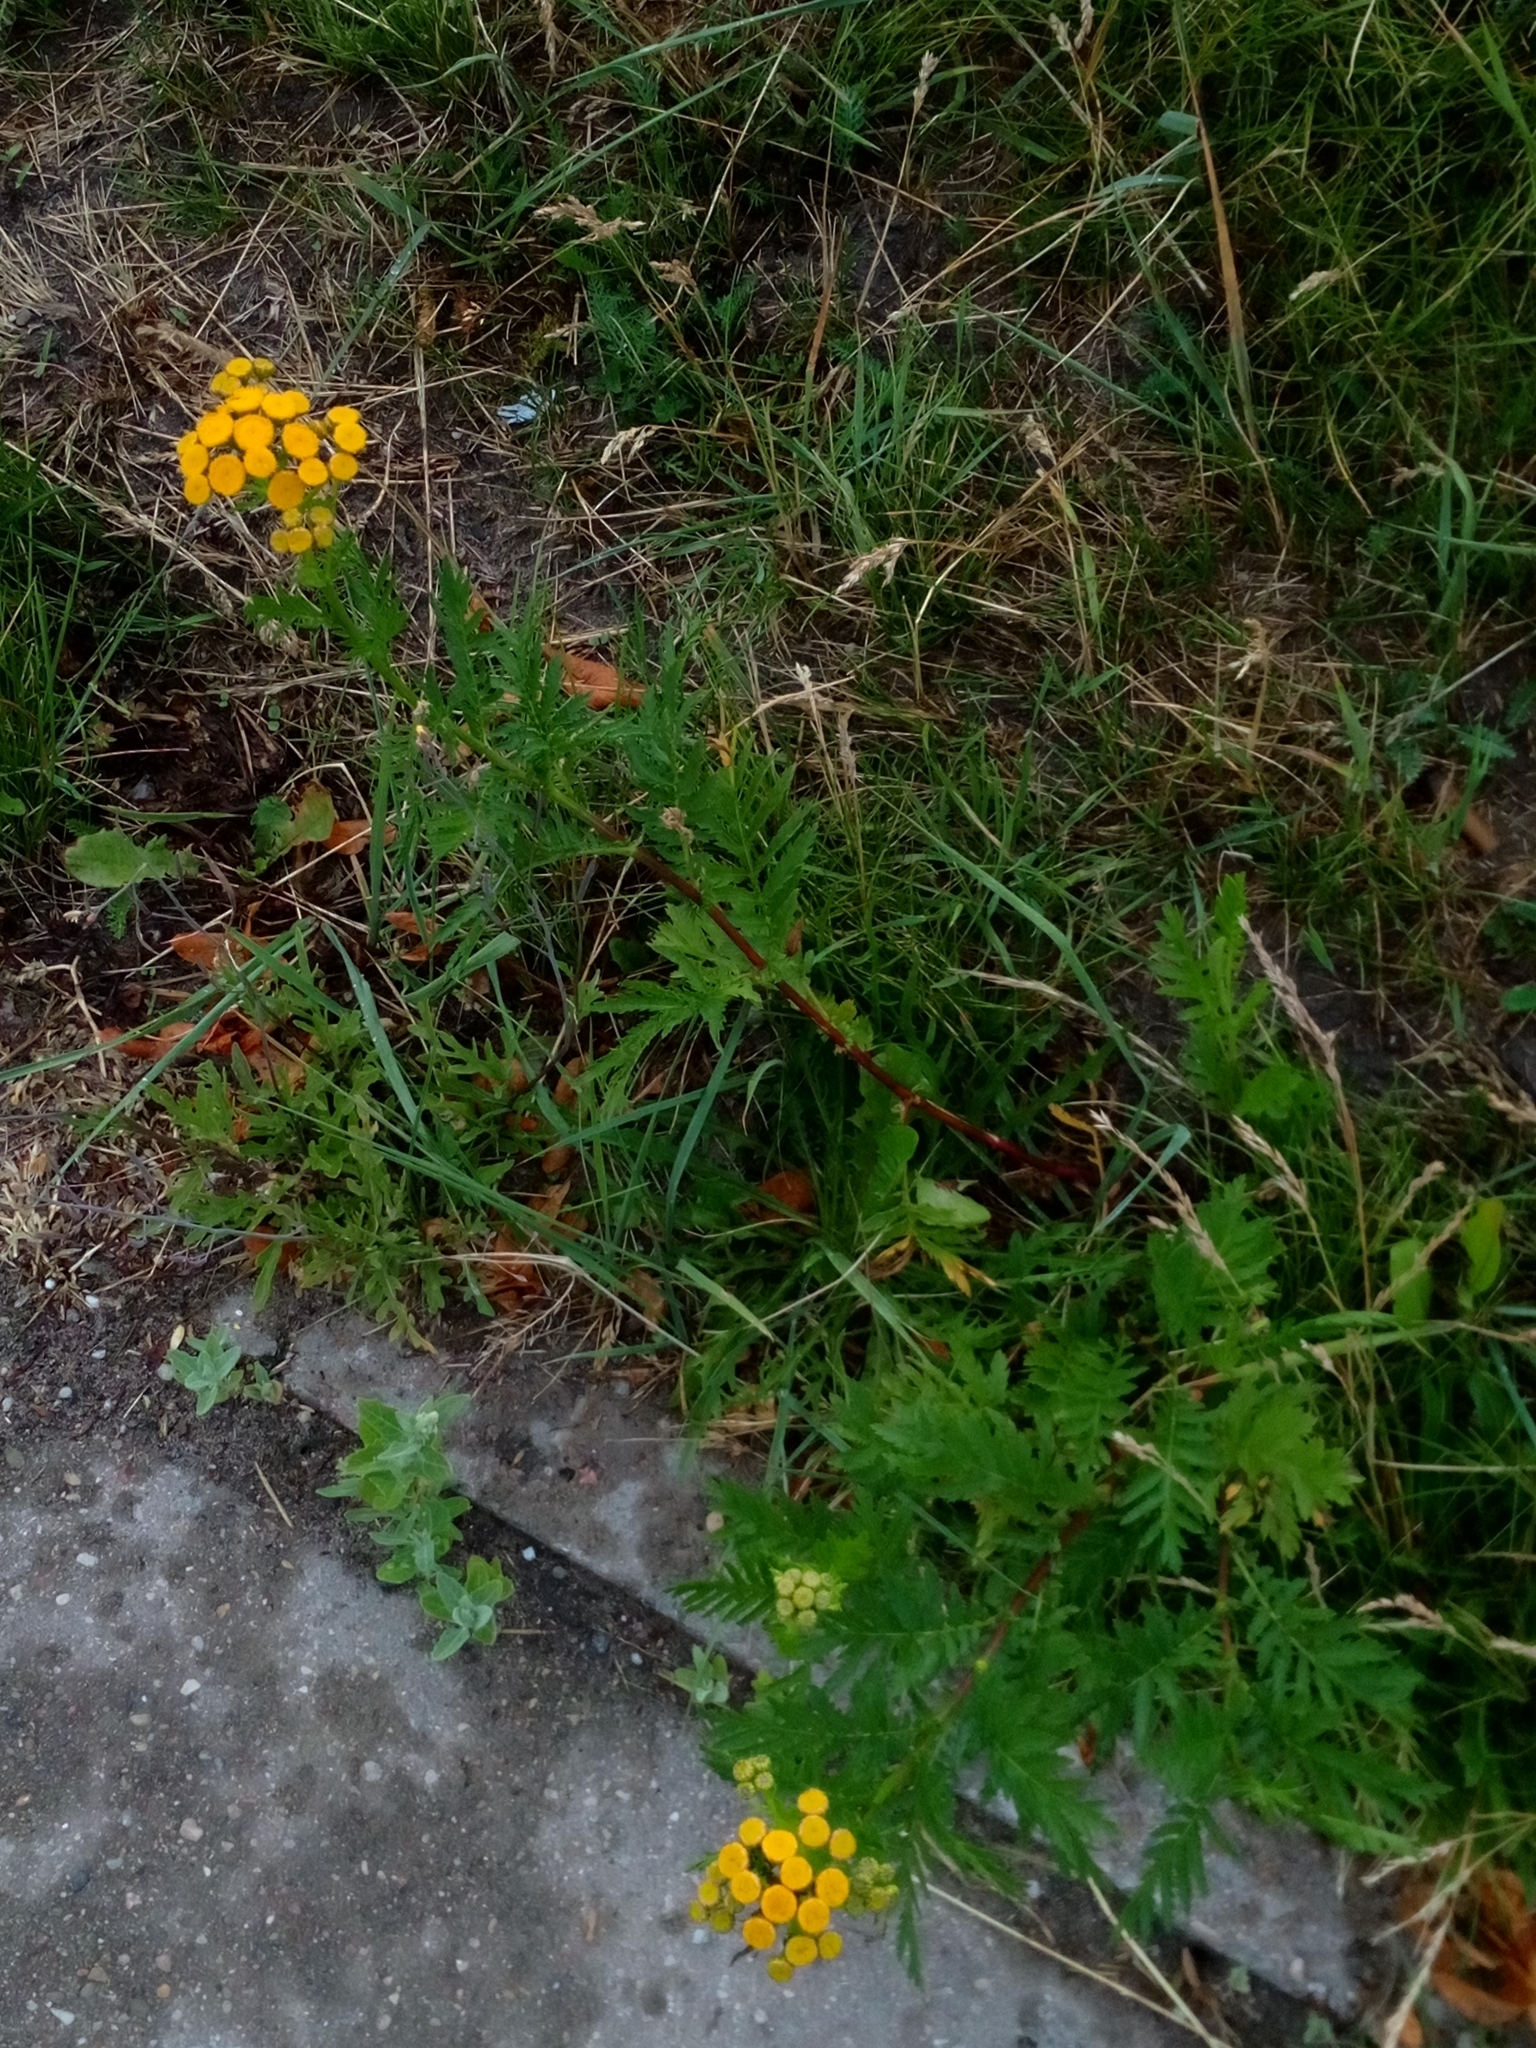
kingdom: Plantae
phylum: Tracheophyta
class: Magnoliopsida
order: Asterales
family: Asteraceae
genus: Tanacetum
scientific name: Tanacetum vulgare
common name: Common tansy
